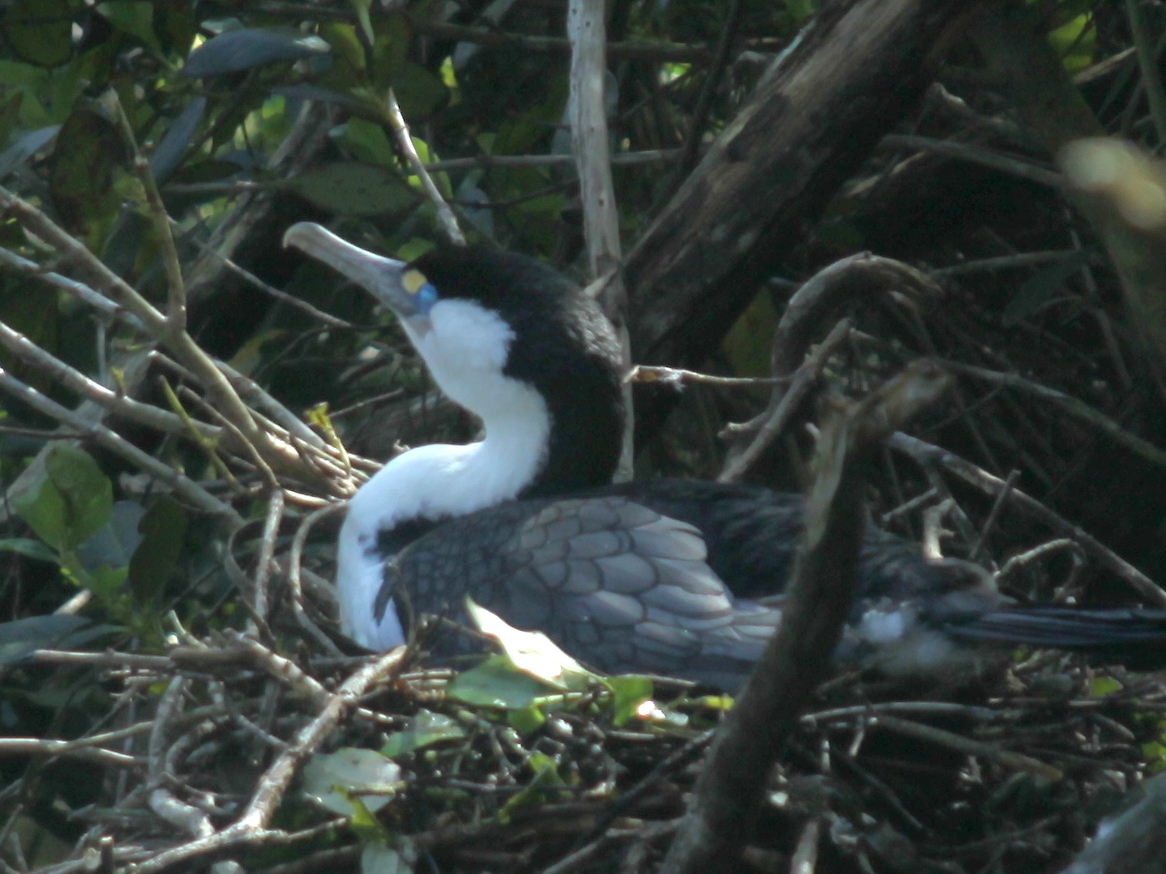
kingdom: Animalia
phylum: Chordata
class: Aves
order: Suliformes
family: Phalacrocoracidae
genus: Phalacrocorax
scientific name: Phalacrocorax varius
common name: Pied cormorant
